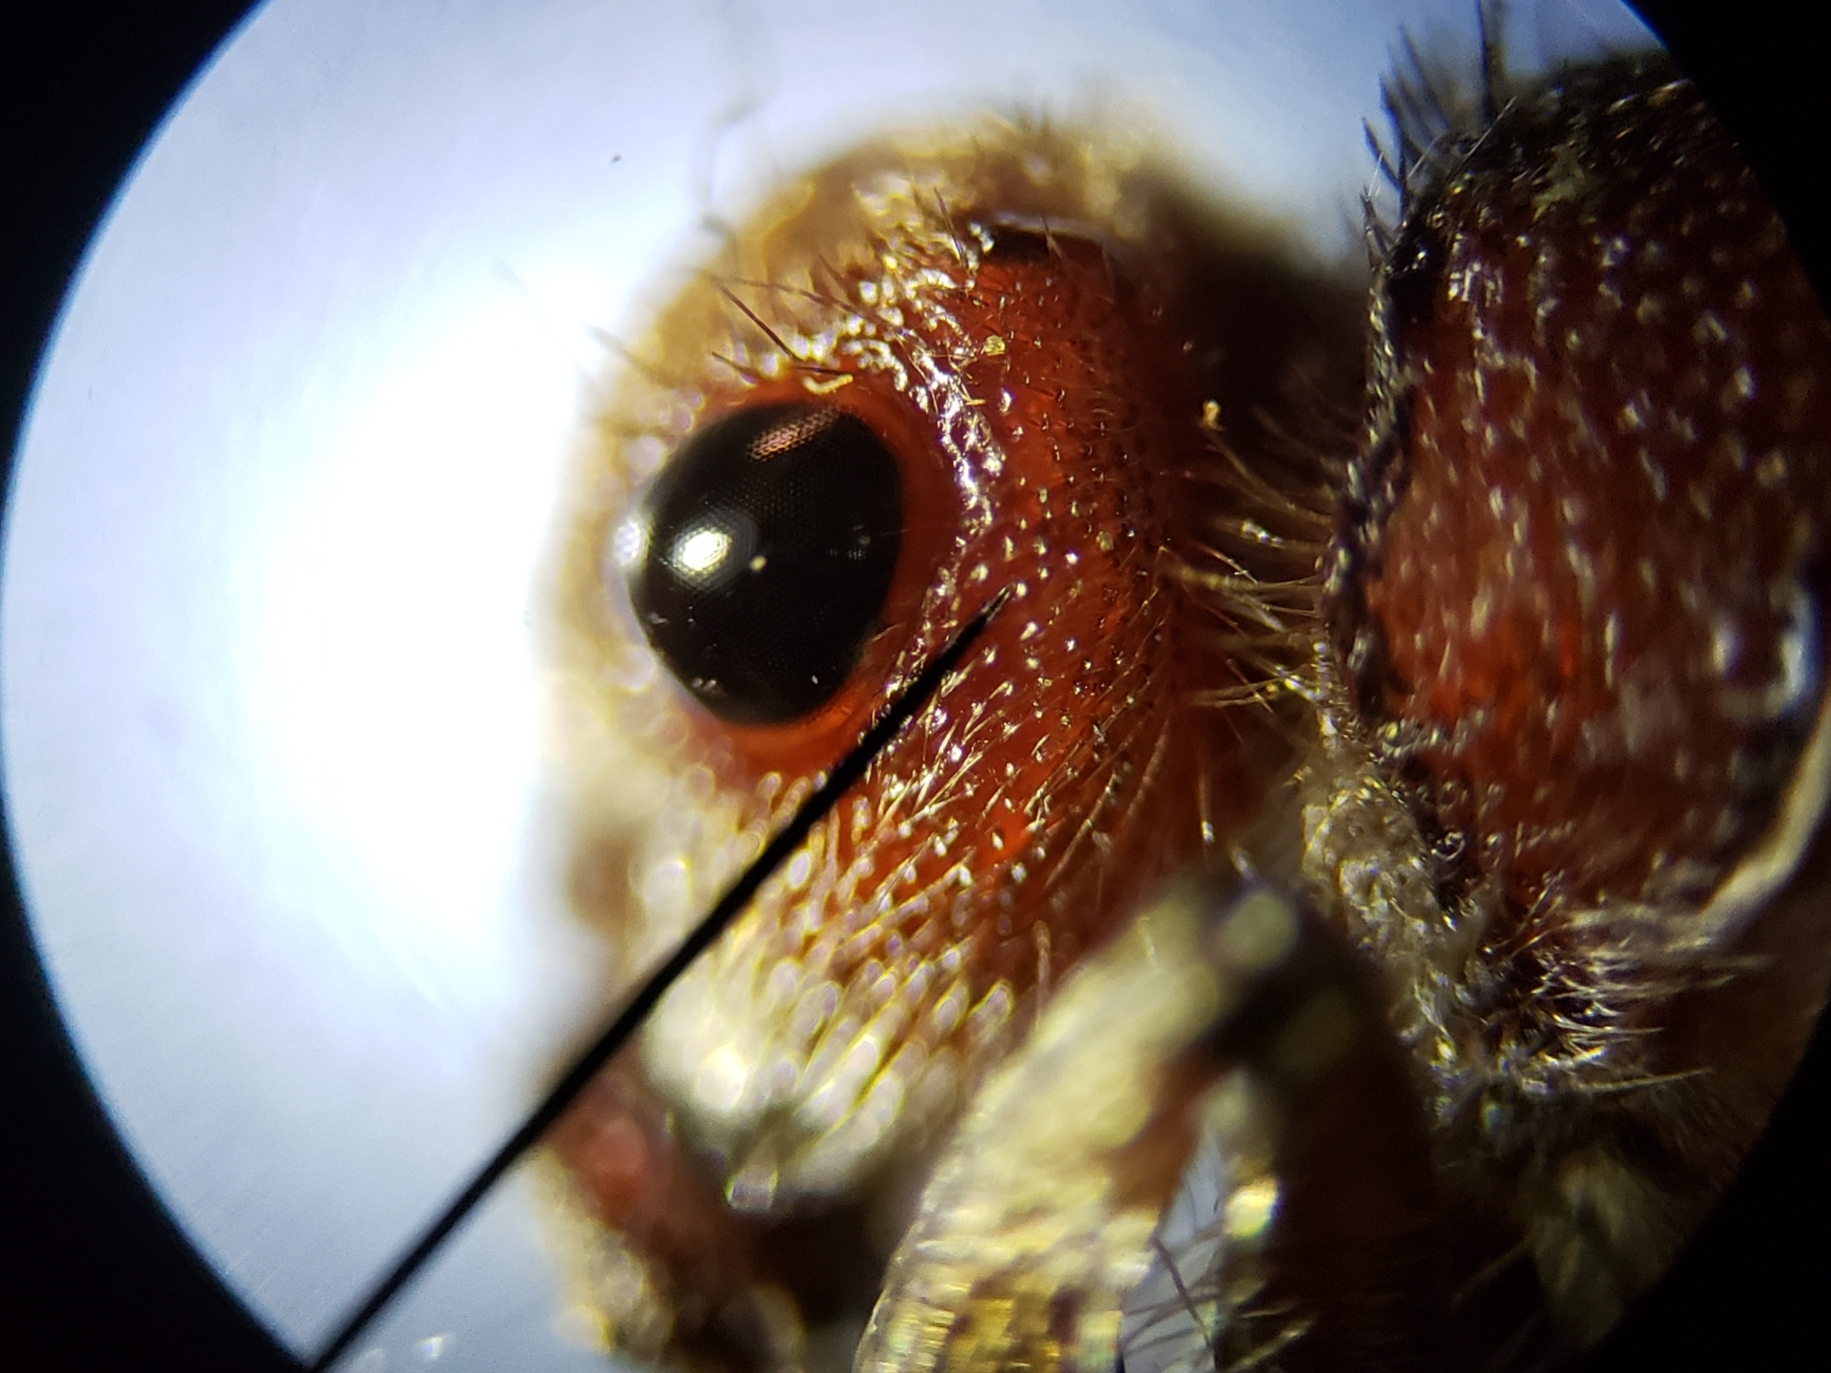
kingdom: Animalia
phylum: Arthropoda
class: Insecta
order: Hymenoptera
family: Mutillidae
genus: Dasymutilla
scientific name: Dasymutilla
